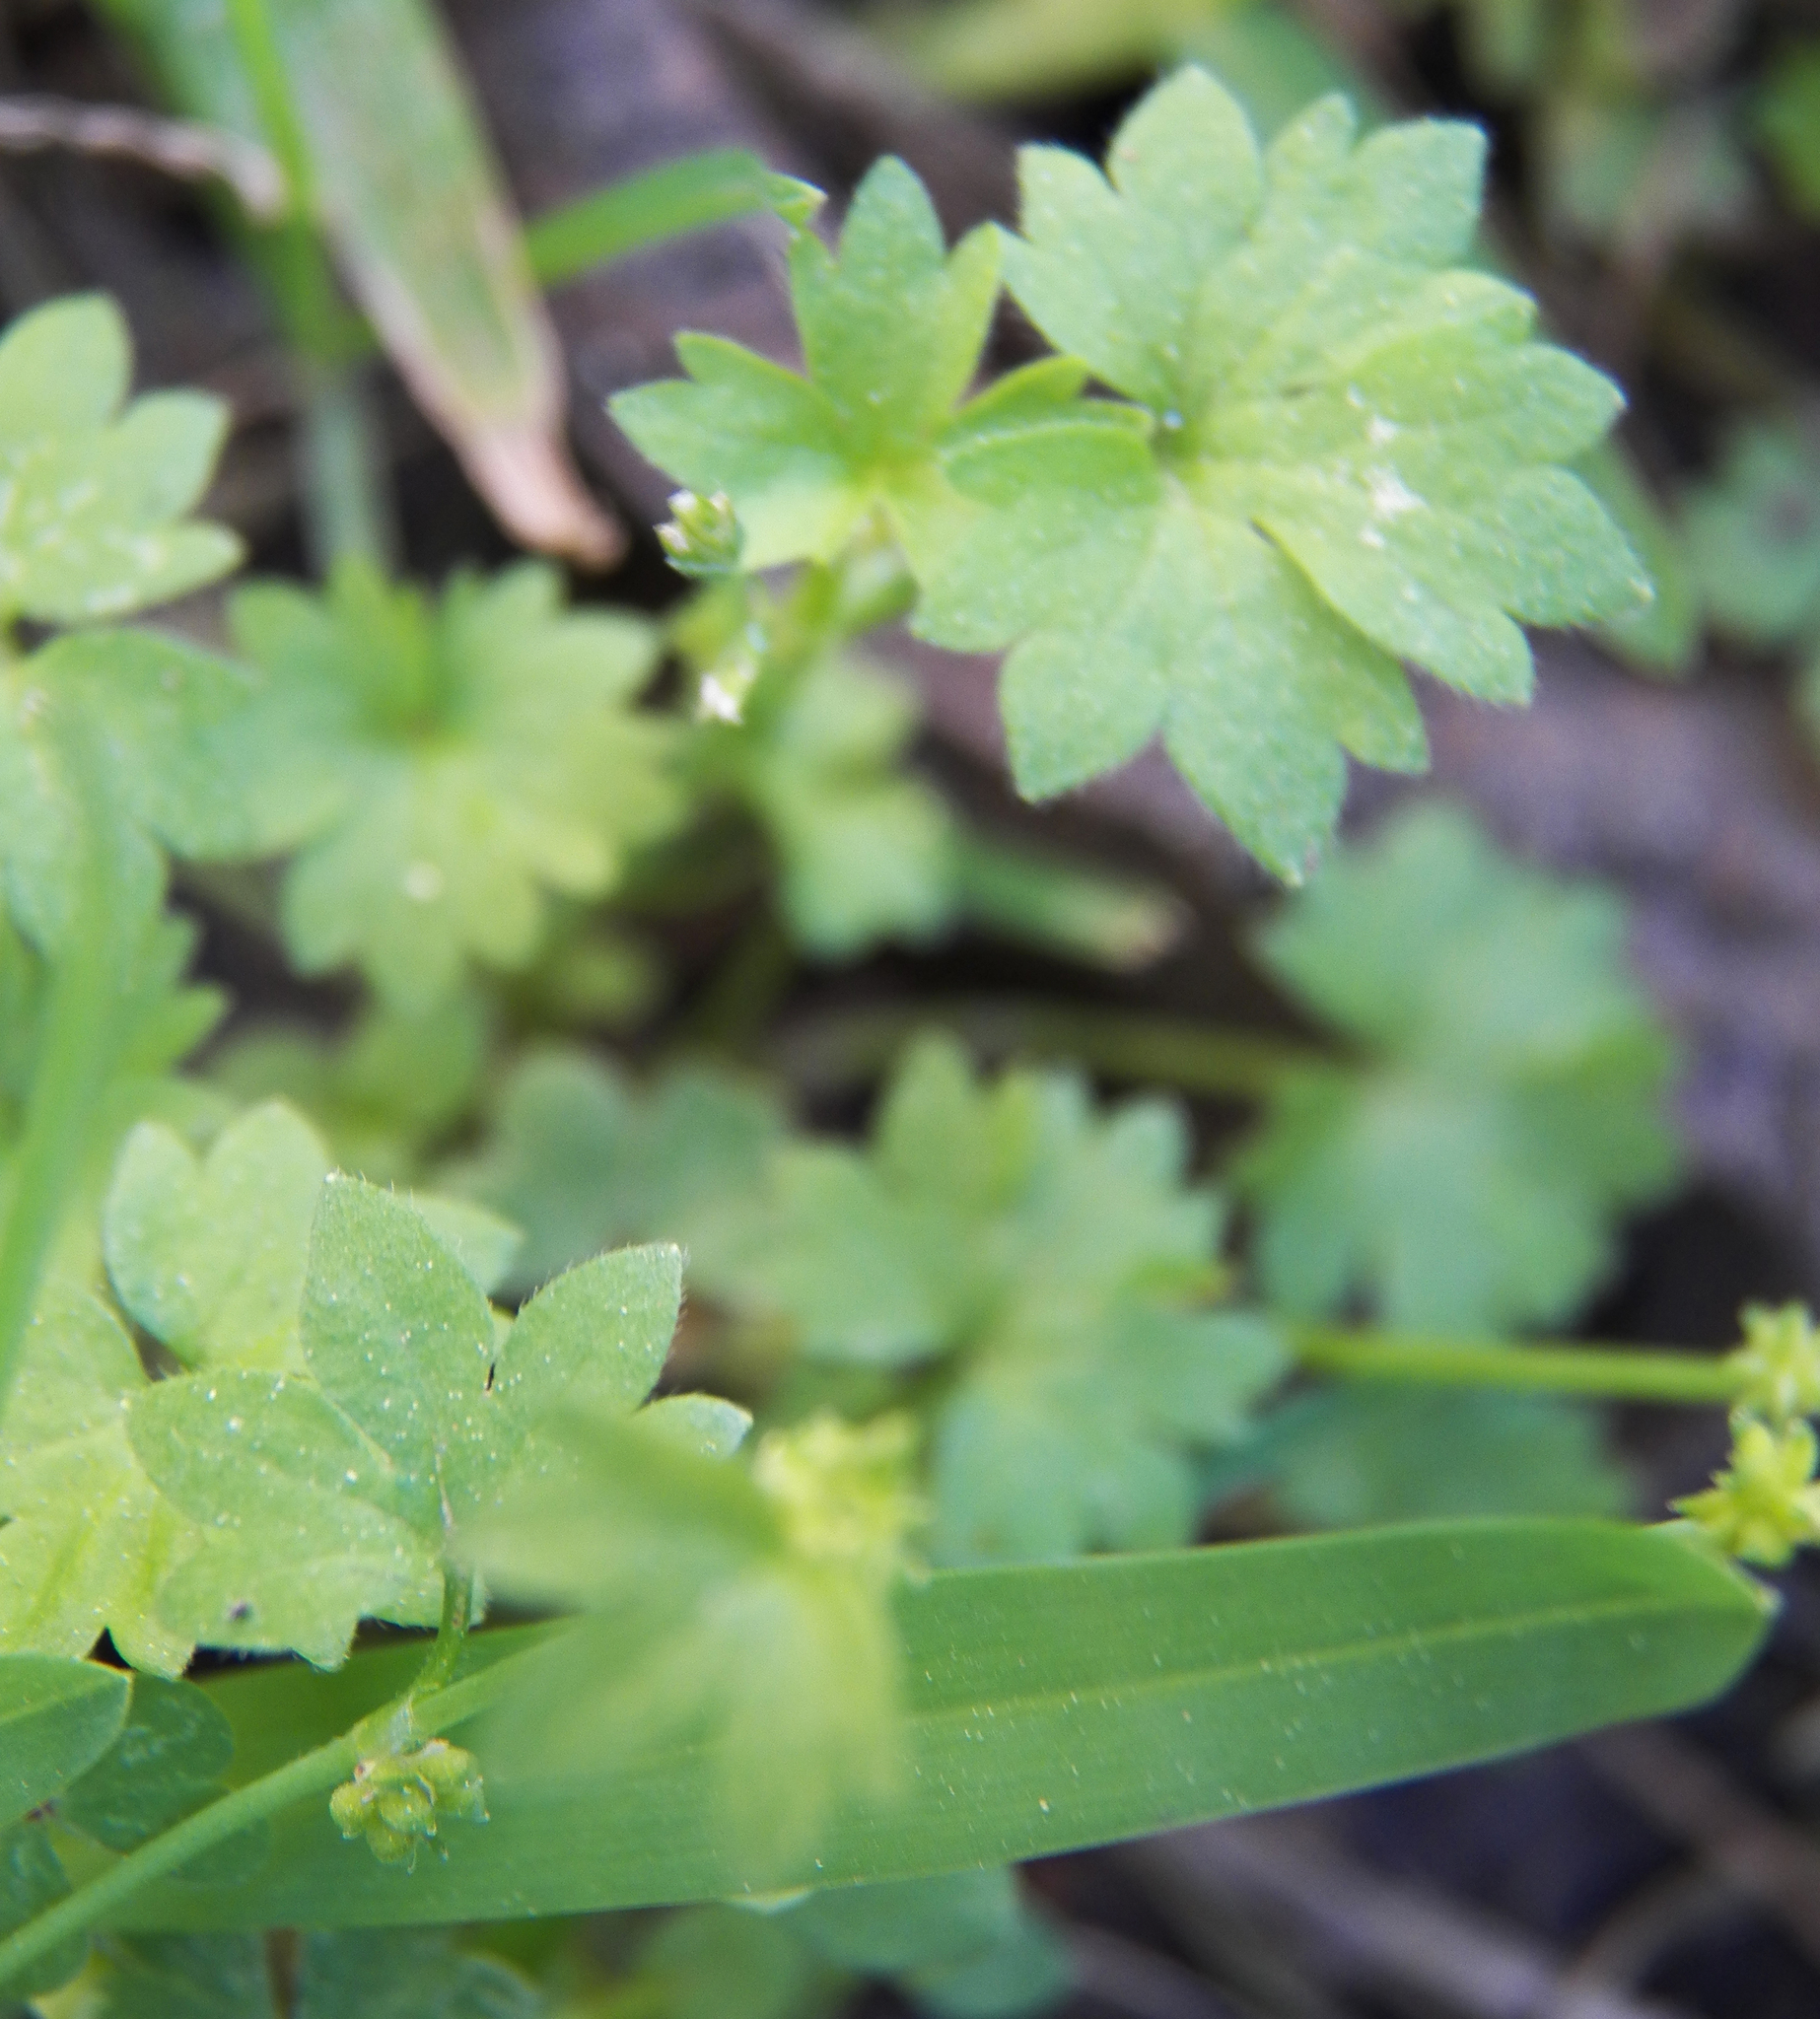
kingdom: Plantae
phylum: Tracheophyta
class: Magnoliopsida
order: Ranunculales
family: Ranunculaceae
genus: Ranunculus
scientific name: Ranunculus platensis
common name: Prairie buttercup
